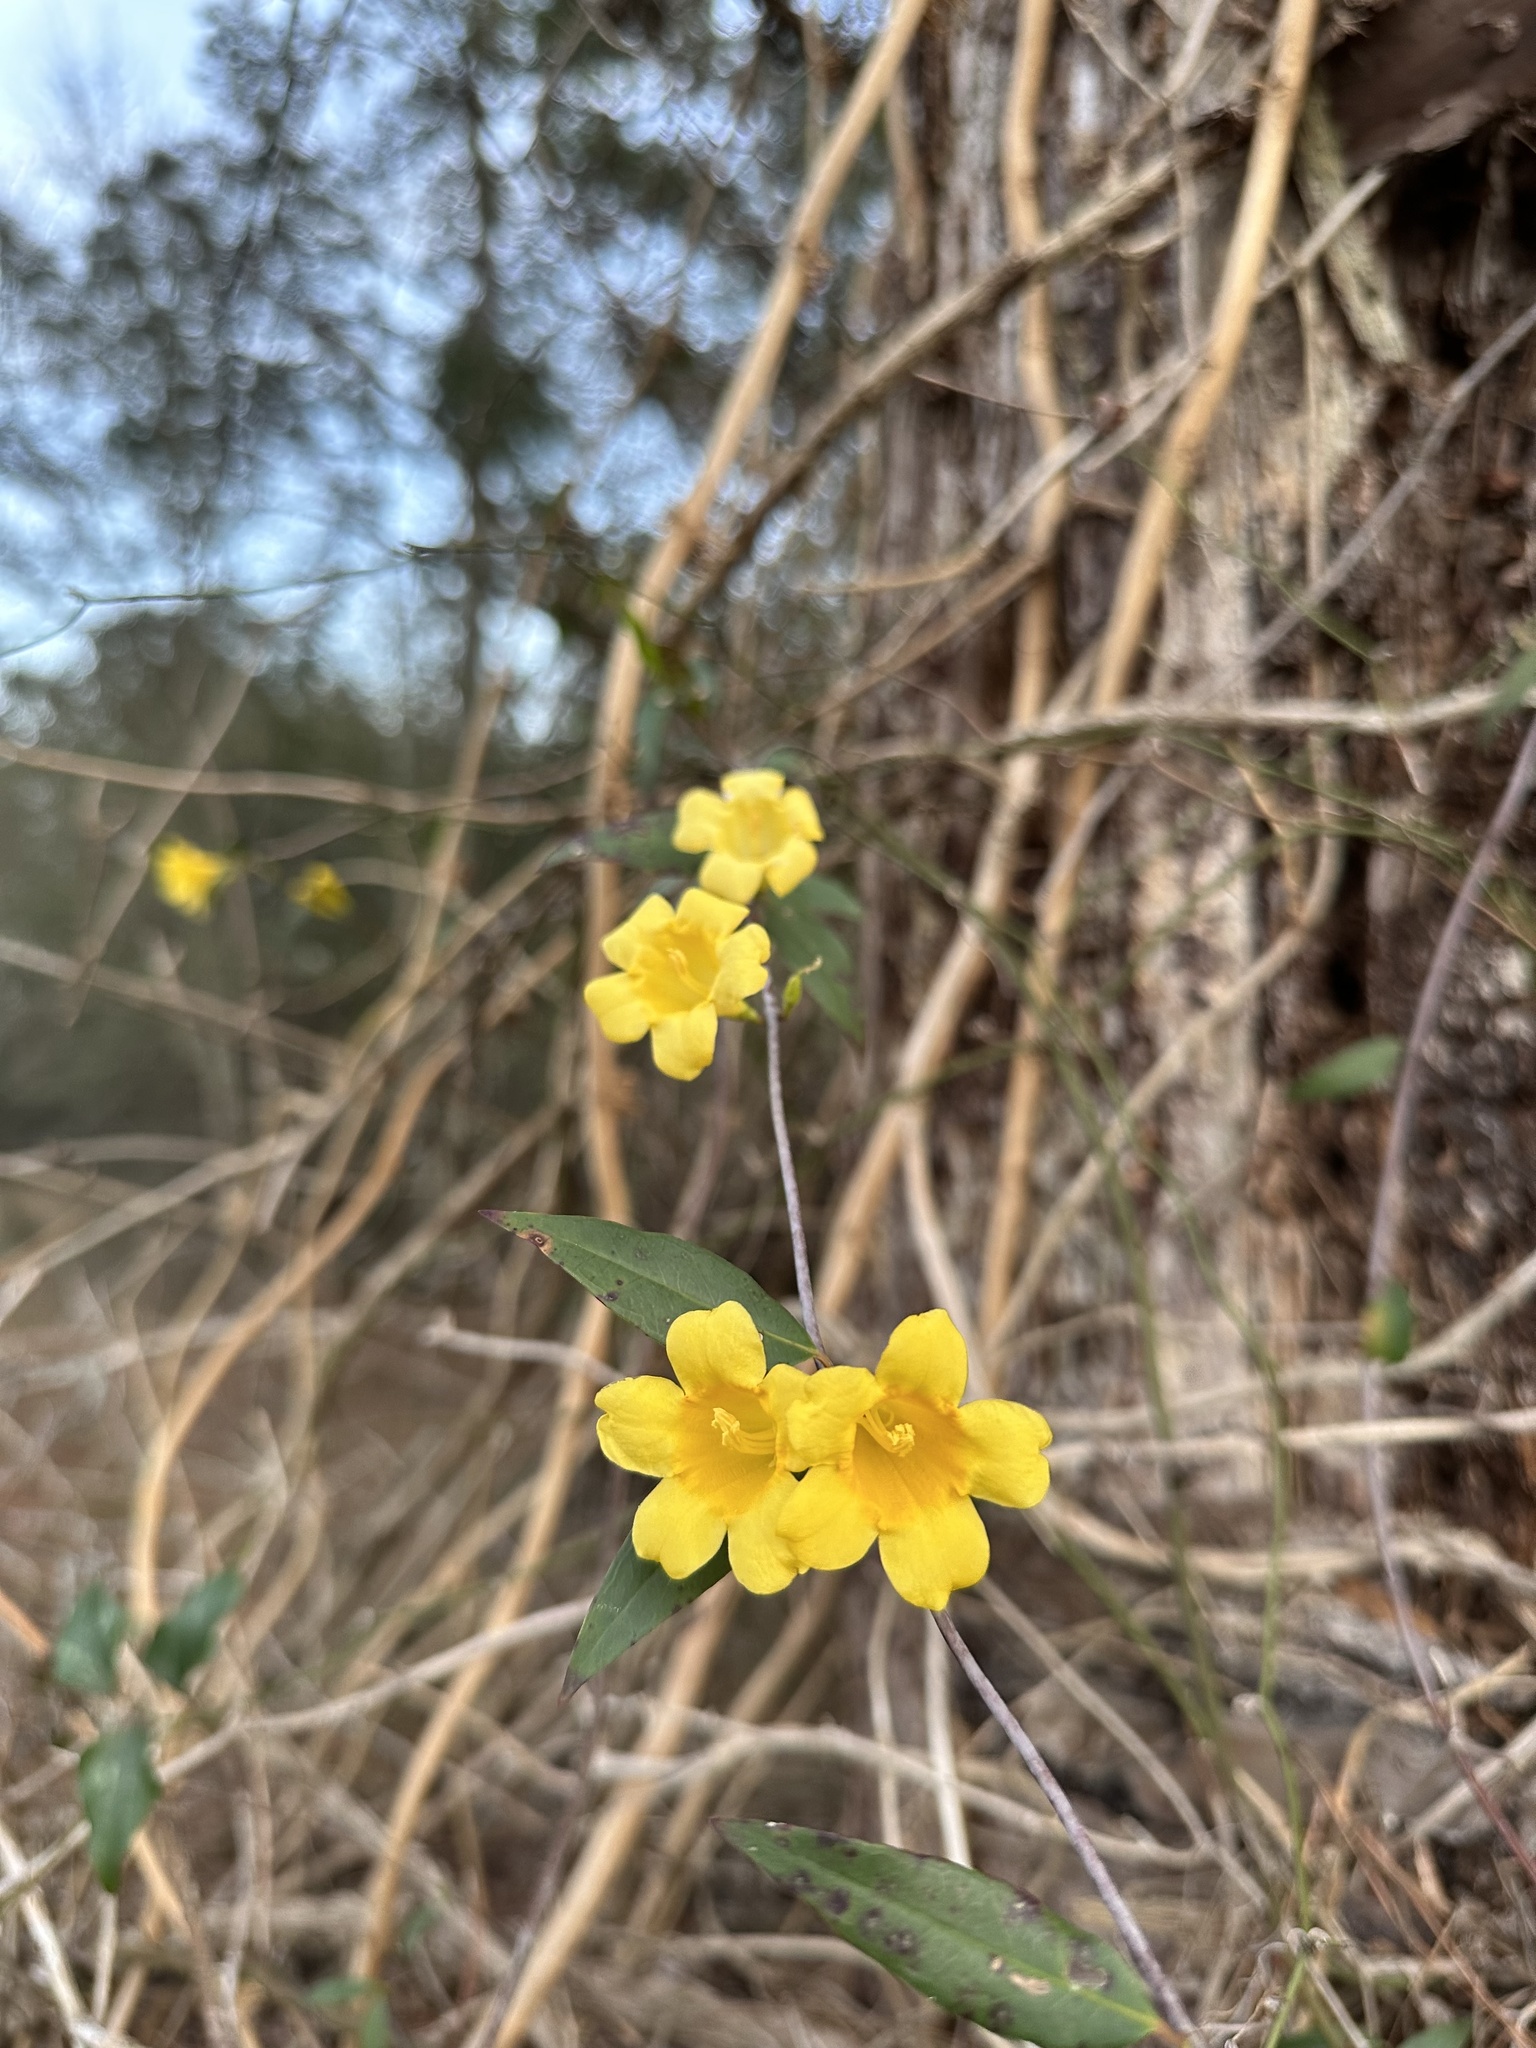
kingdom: Plantae
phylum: Tracheophyta
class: Magnoliopsida
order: Gentianales
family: Gelsemiaceae
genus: Gelsemium
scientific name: Gelsemium sempervirens
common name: Carolina-jasmine
